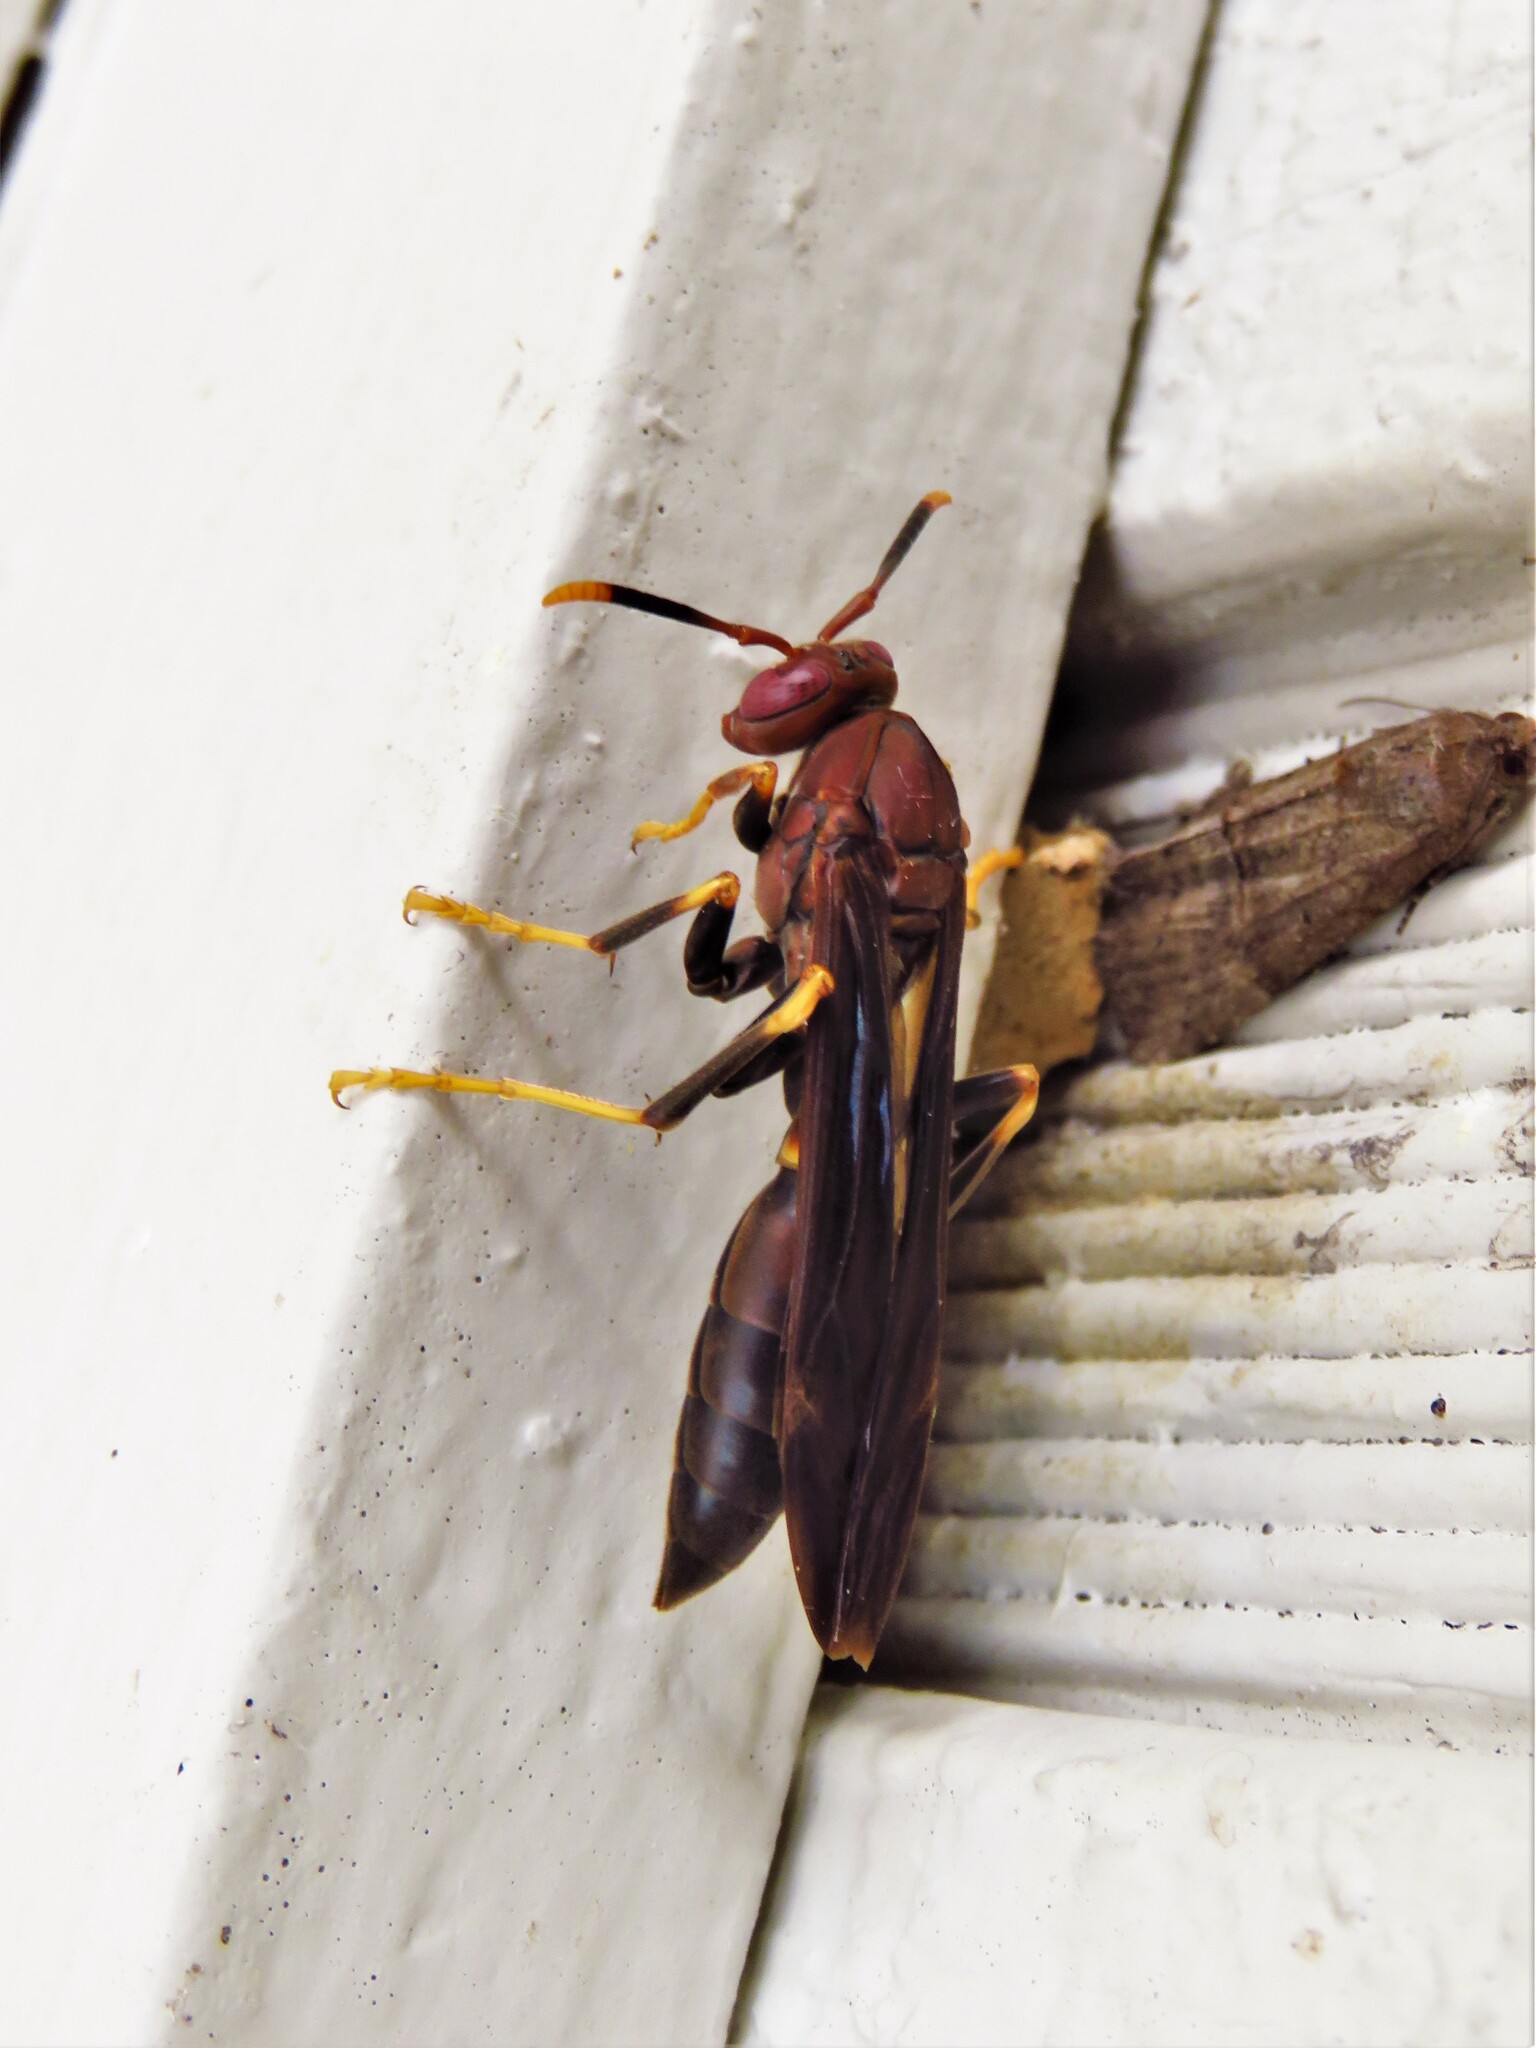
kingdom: Animalia
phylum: Arthropoda
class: Insecta
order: Hymenoptera
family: Eumenidae
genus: Polistes
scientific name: Polistes annularis
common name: Ringed paper wasp
